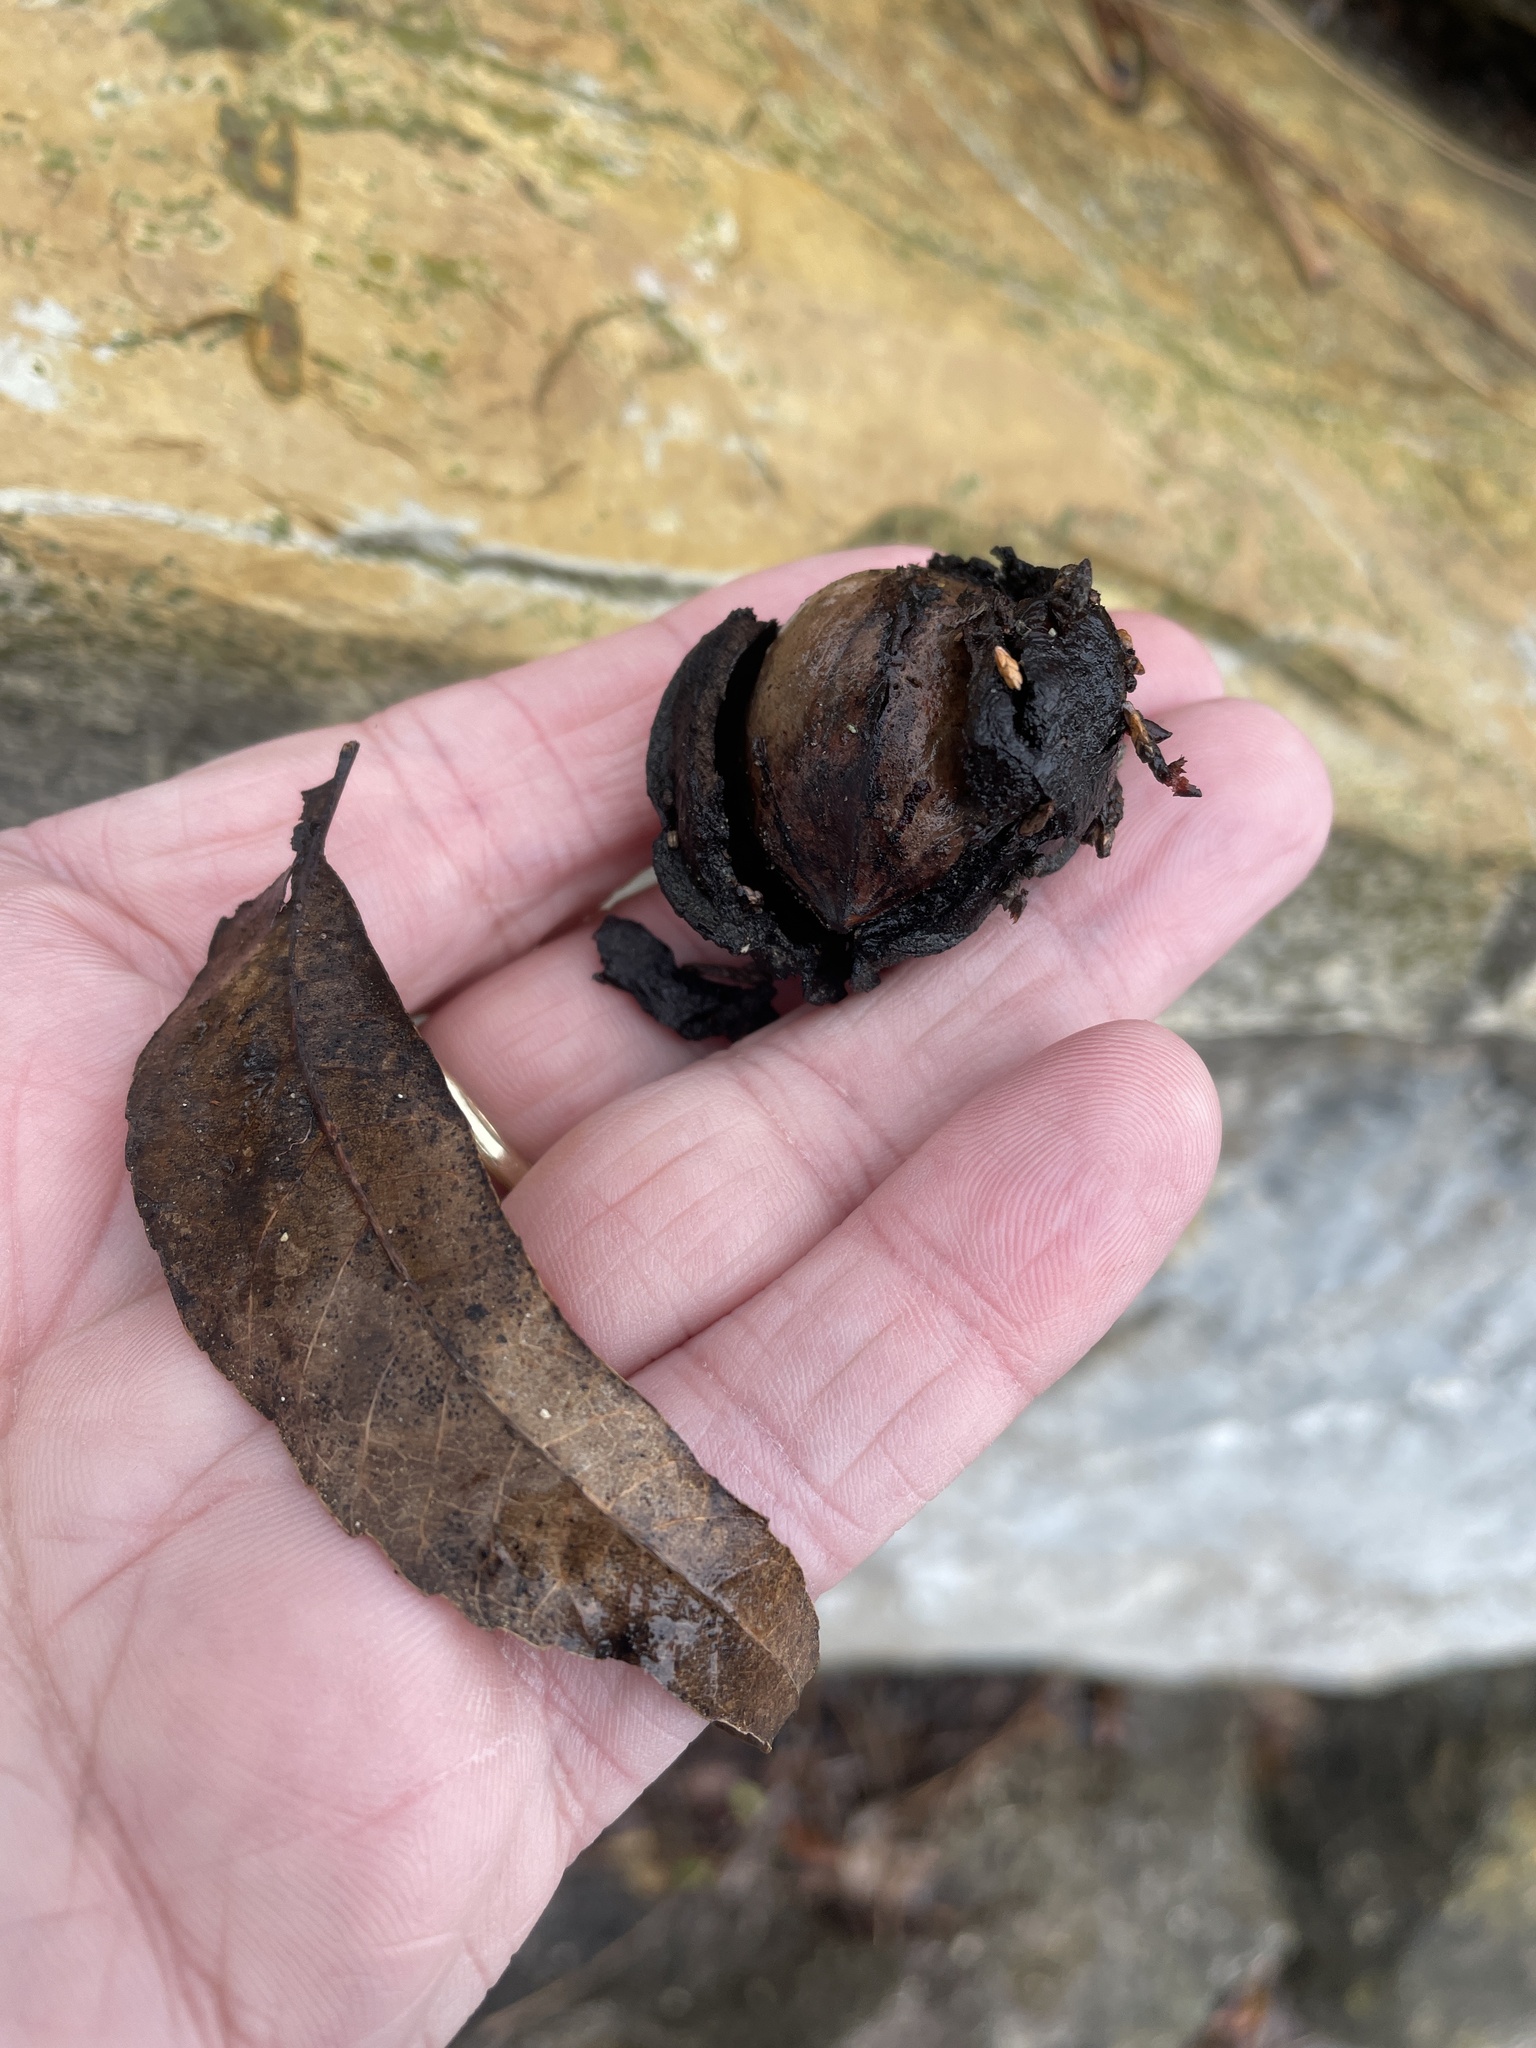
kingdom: Plantae
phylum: Tracheophyta
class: Magnoliopsida
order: Fagales
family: Juglandaceae
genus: Carya
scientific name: Carya illinoinensis
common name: Pecan
